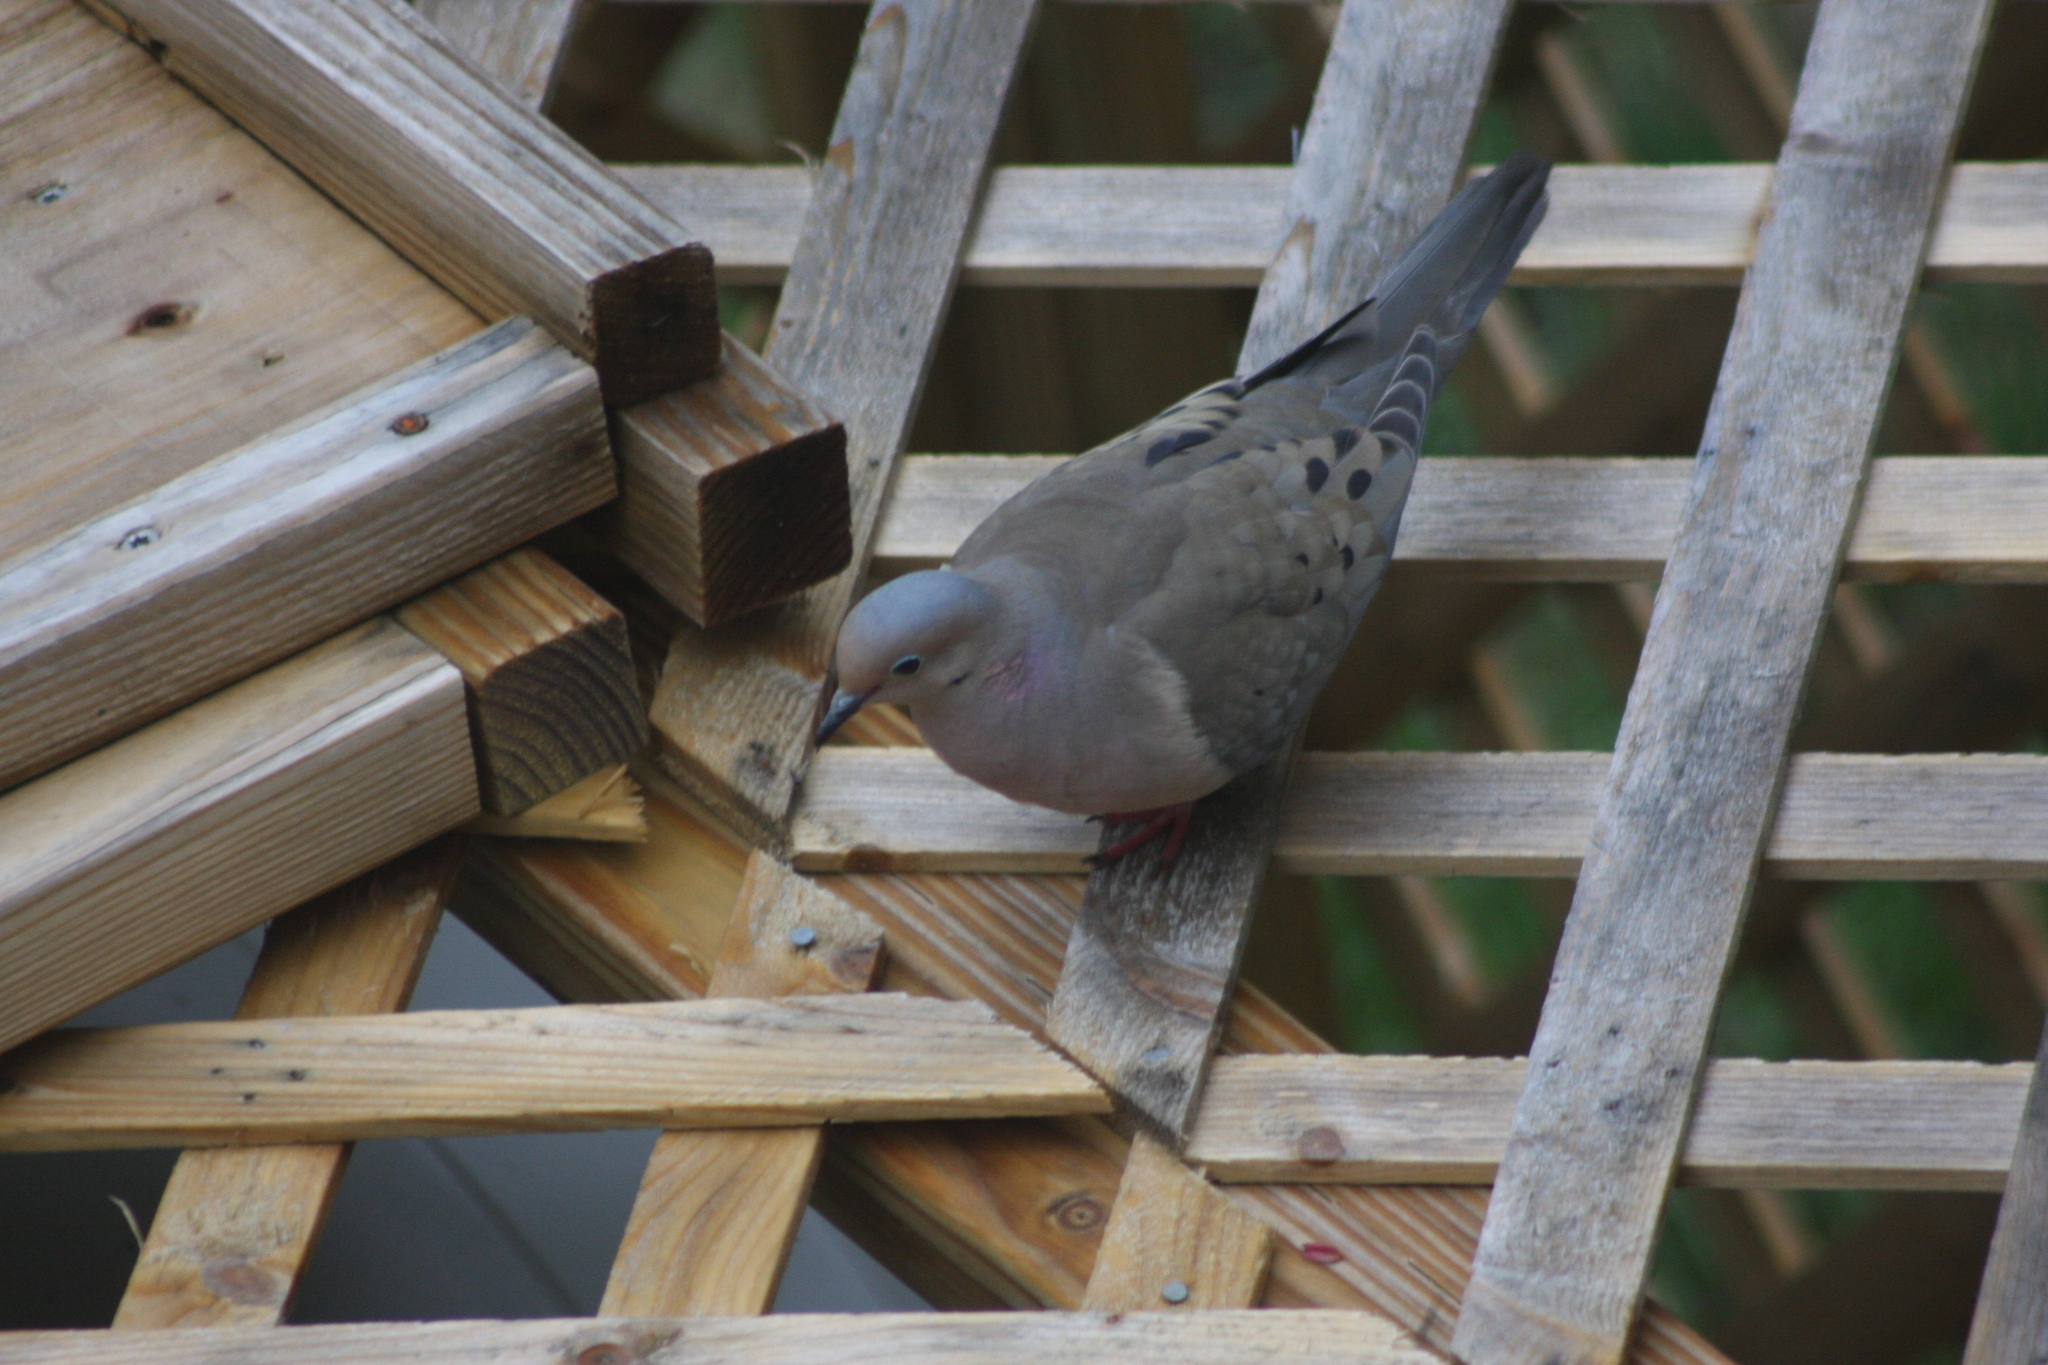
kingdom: Animalia
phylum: Chordata
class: Aves
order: Columbiformes
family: Columbidae
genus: Zenaida
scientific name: Zenaida macroura
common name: Mourning dove
